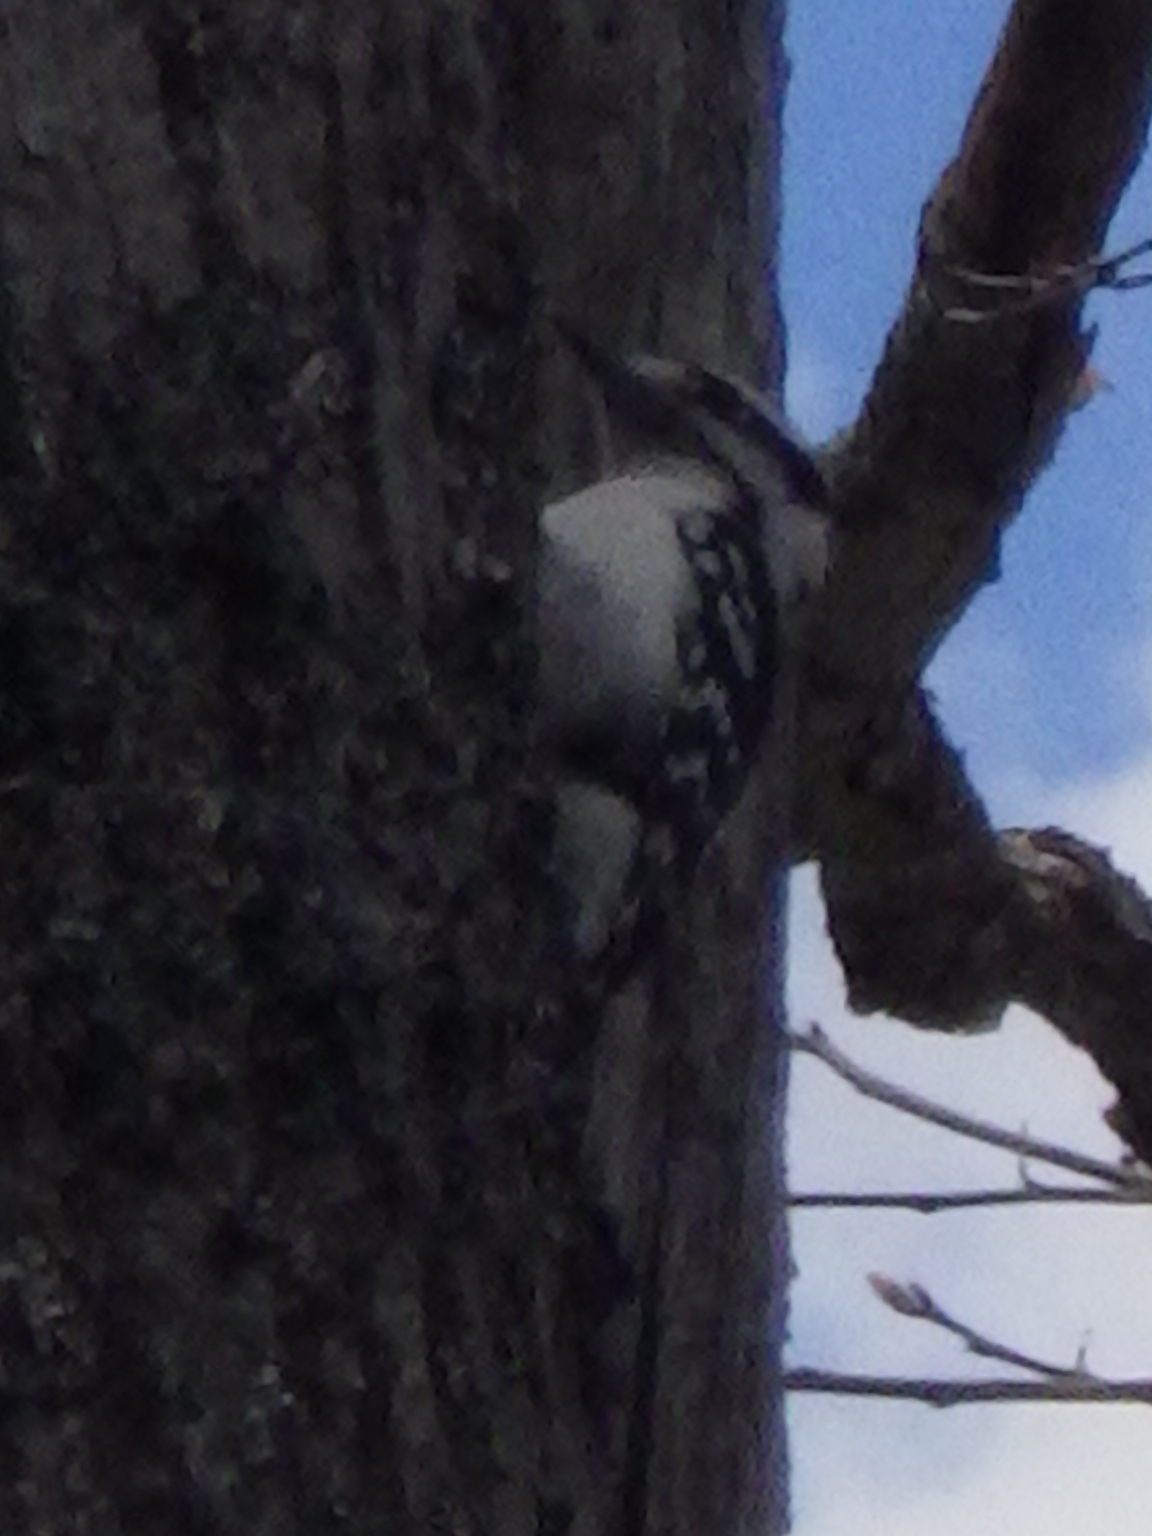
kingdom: Animalia
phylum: Chordata
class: Aves
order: Piciformes
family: Picidae
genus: Dryobates
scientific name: Dryobates pubescens
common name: Downy woodpecker
